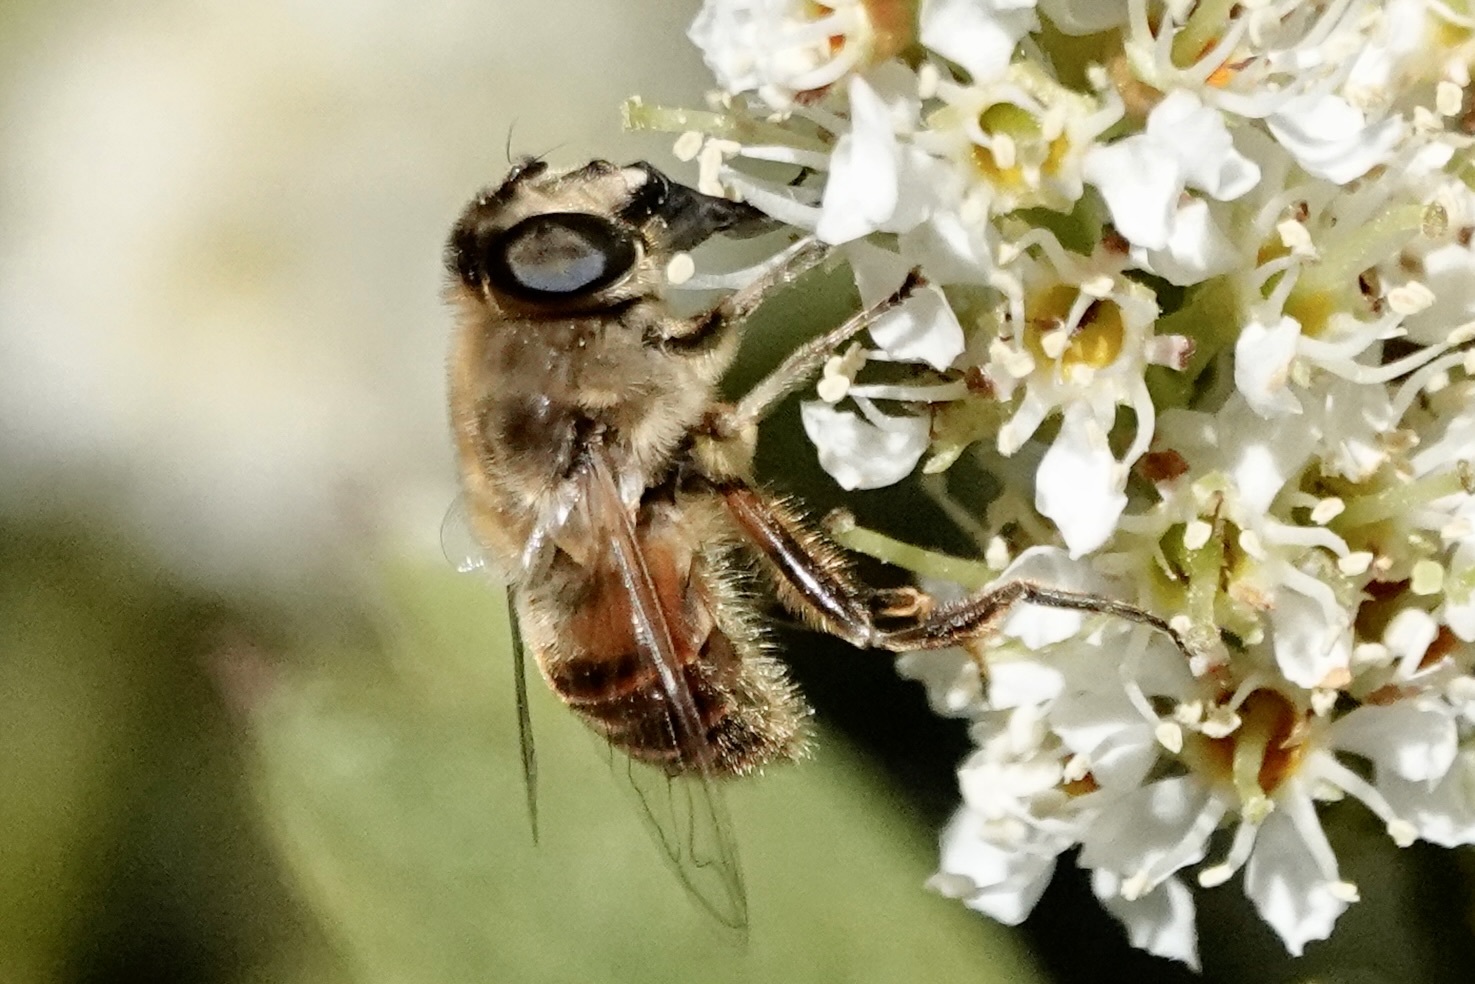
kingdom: Animalia
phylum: Arthropoda
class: Insecta
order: Diptera
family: Syrphidae
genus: Eristalis
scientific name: Eristalis tenax
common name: Drone fly
